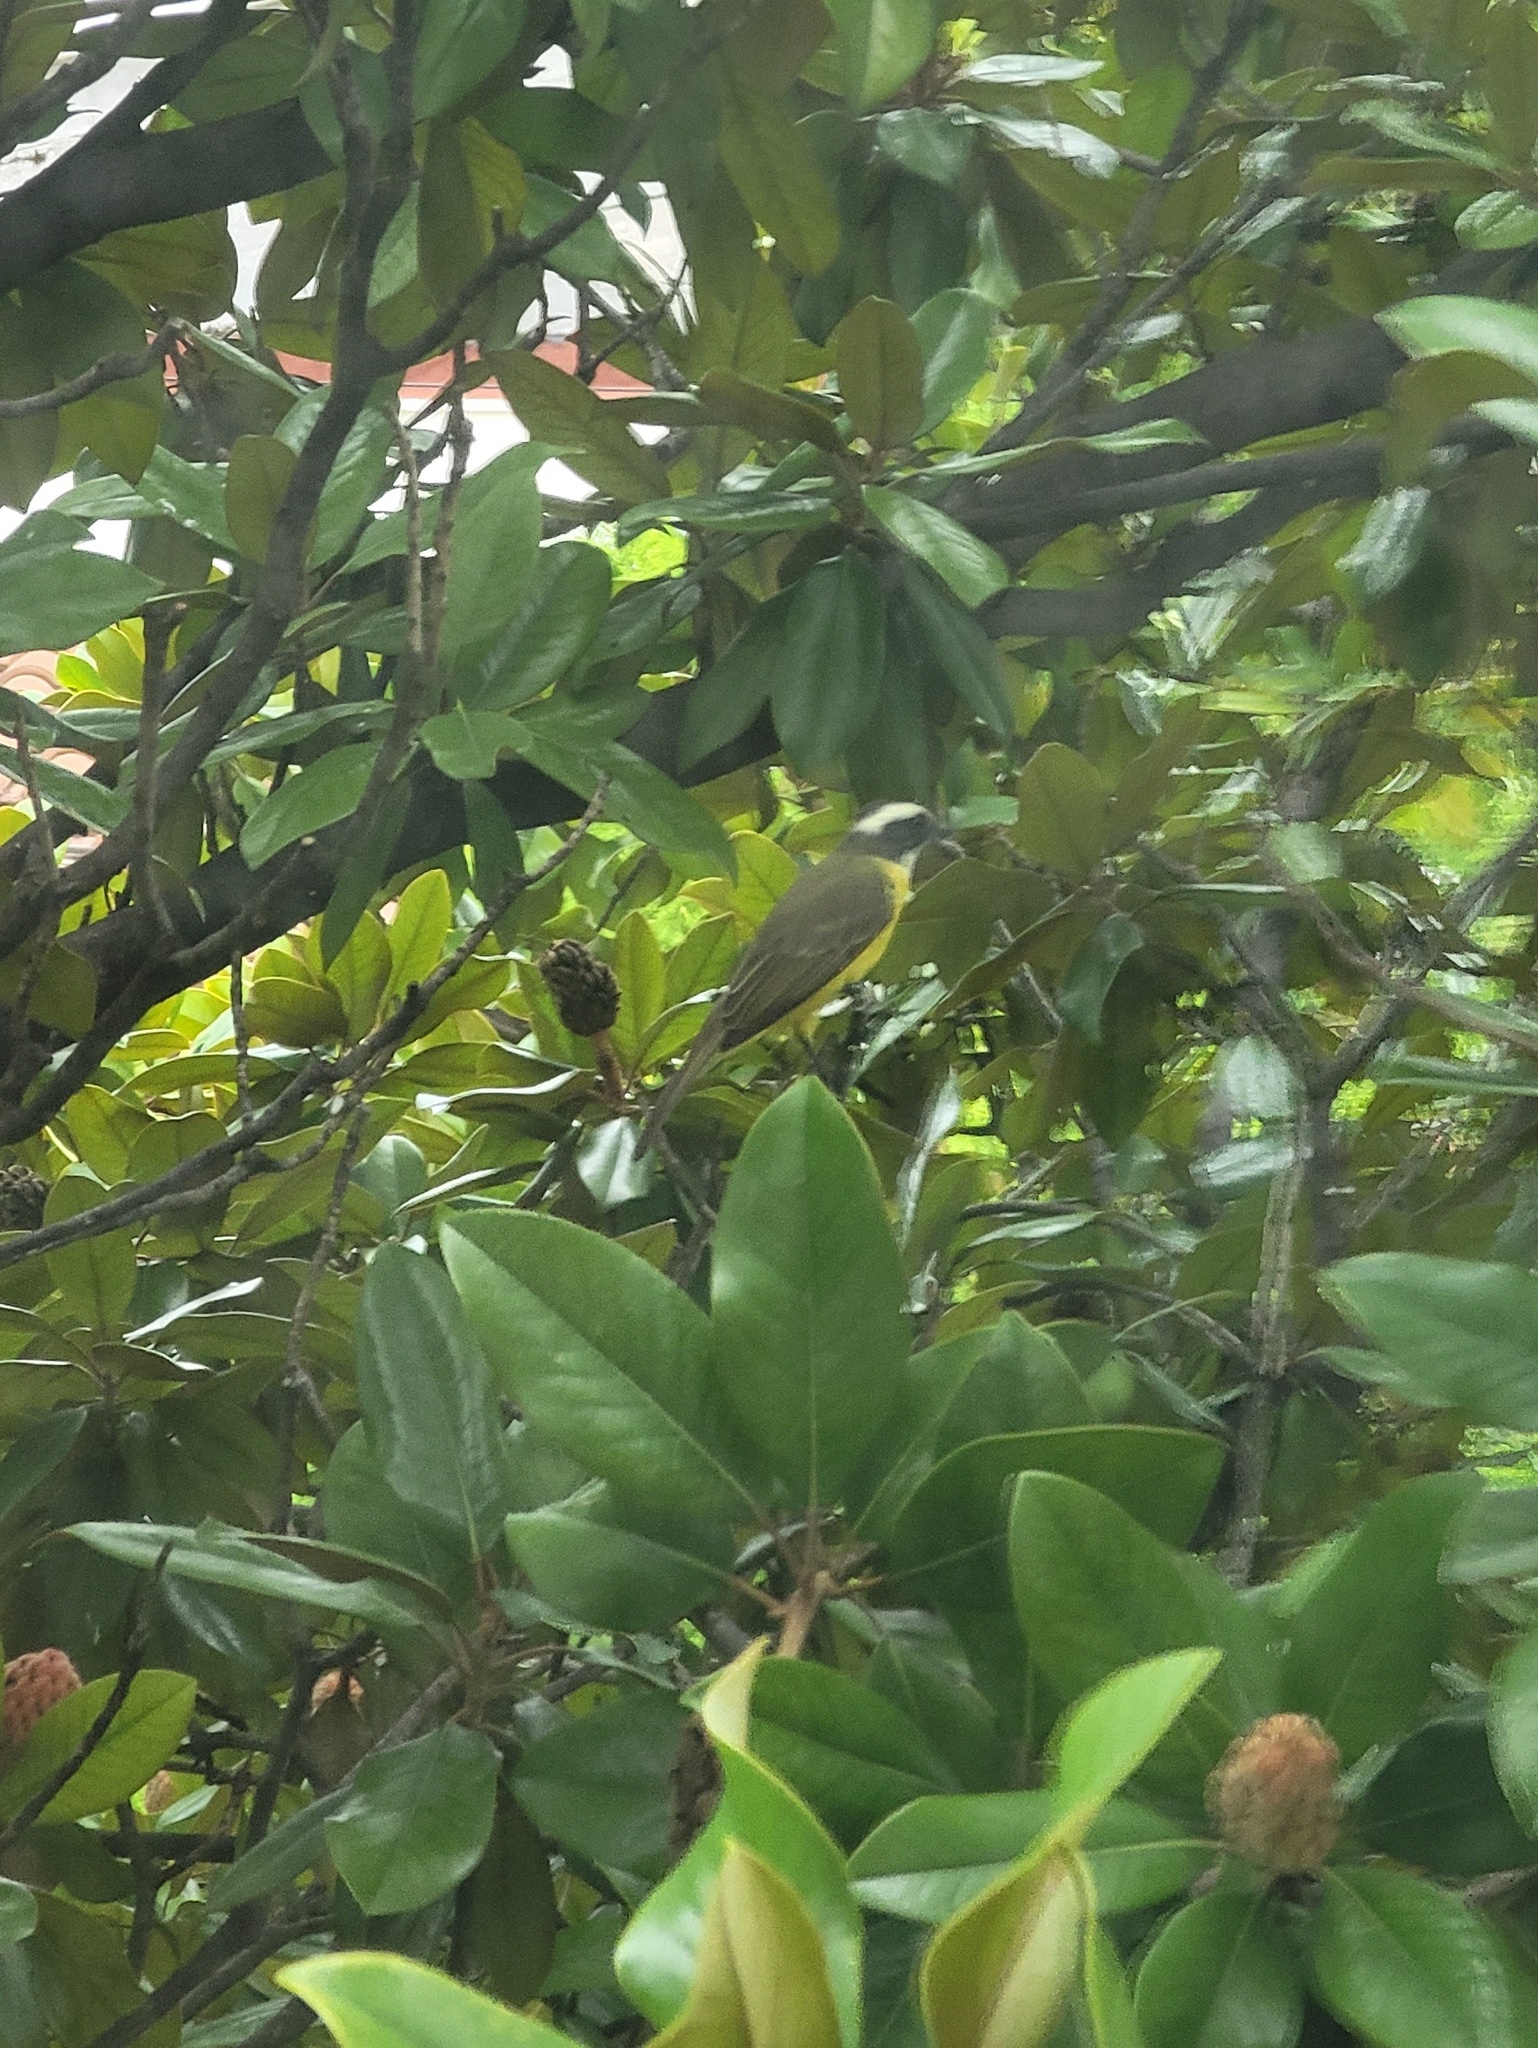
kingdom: Animalia
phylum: Chordata
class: Aves
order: Passeriformes
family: Tyrannidae
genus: Myiozetetes
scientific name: Myiozetetes similis
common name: Social flycatcher
